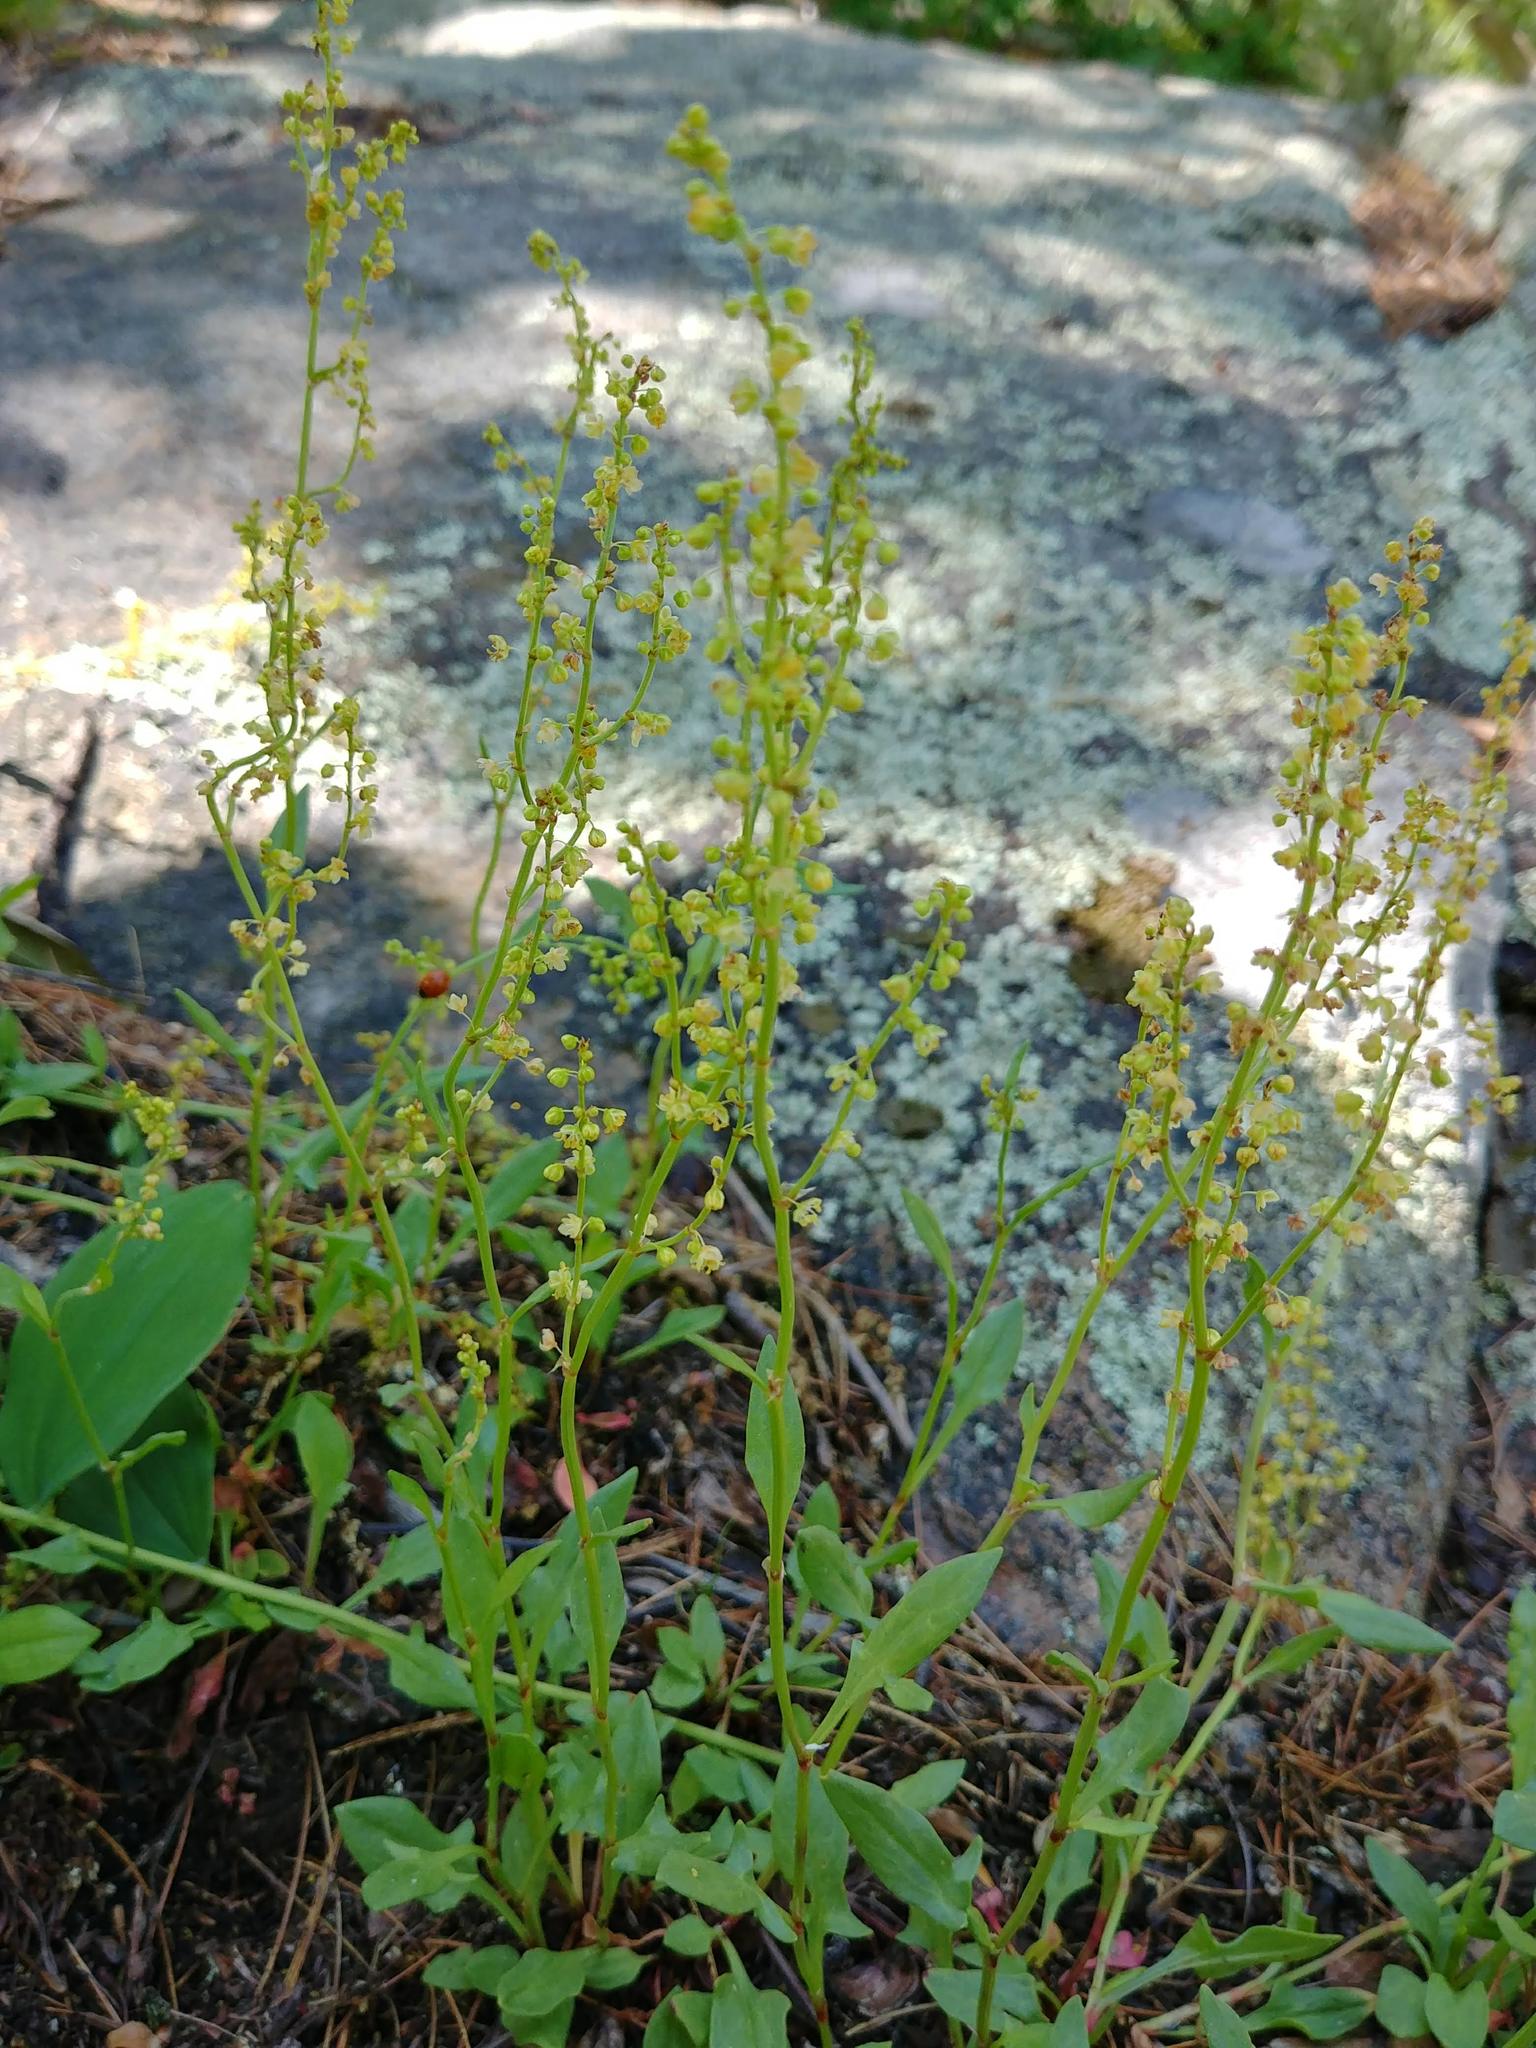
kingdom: Plantae
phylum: Tracheophyta
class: Magnoliopsida
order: Caryophyllales
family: Polygonaceae
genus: Rumex
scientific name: Rumex acetosella
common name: Common sheep sorrel
